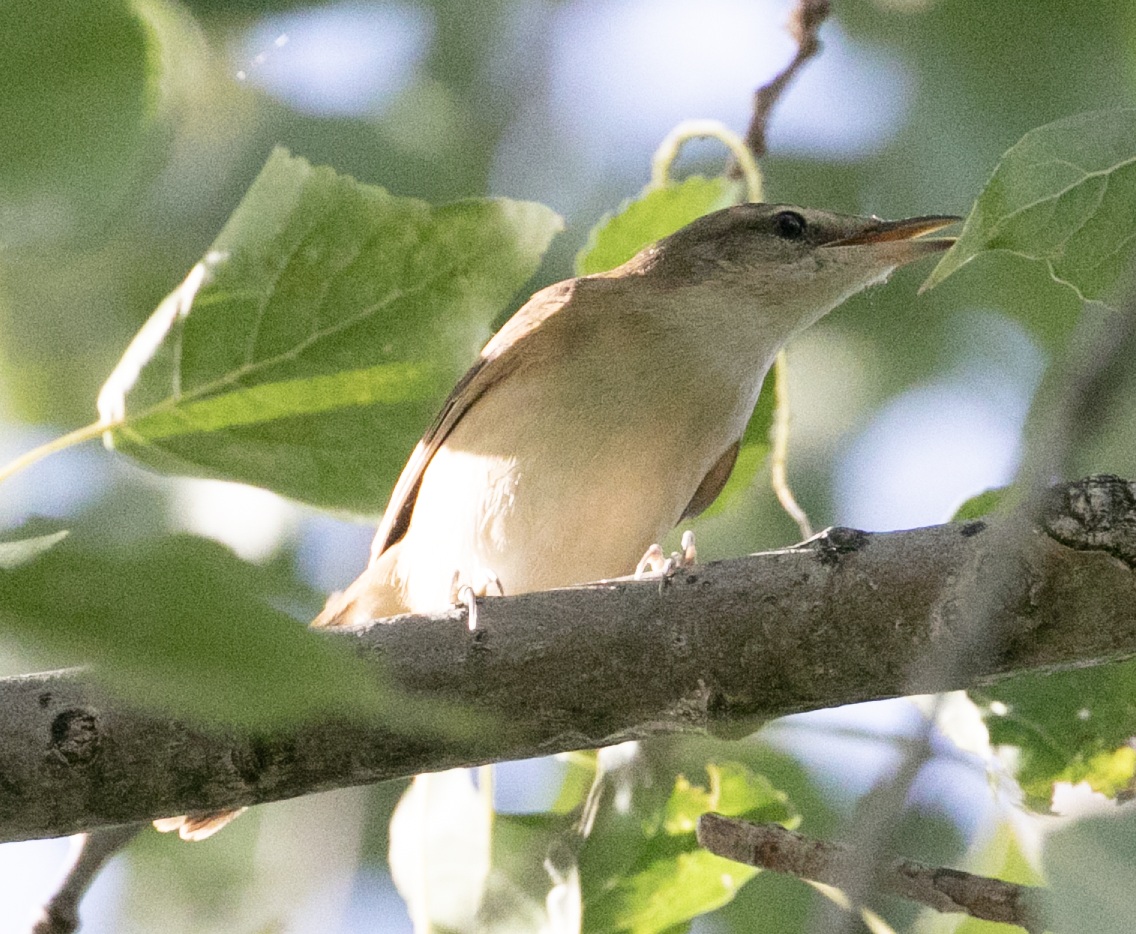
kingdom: Animalia
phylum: Chordata
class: Aves
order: Passeriformes
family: Acrocephalidae
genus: Acrocephalus
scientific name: Acrocephalus arundinaceus
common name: Great reed warbler
